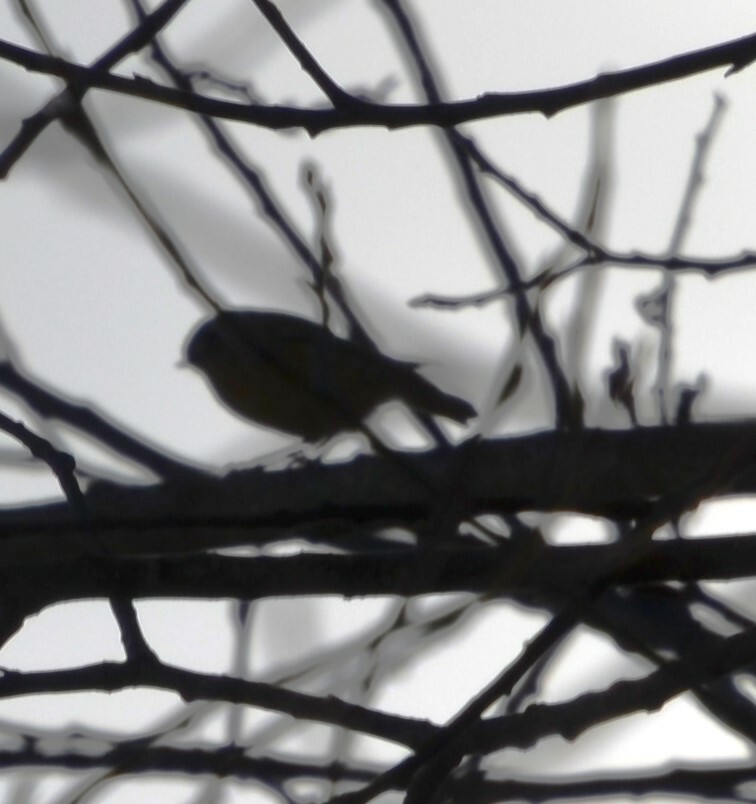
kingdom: Animalia
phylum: Chordata
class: Aves
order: Passeriformes
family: Regulidae
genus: Regulus
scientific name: Regulus regulus
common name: Goldcrest
